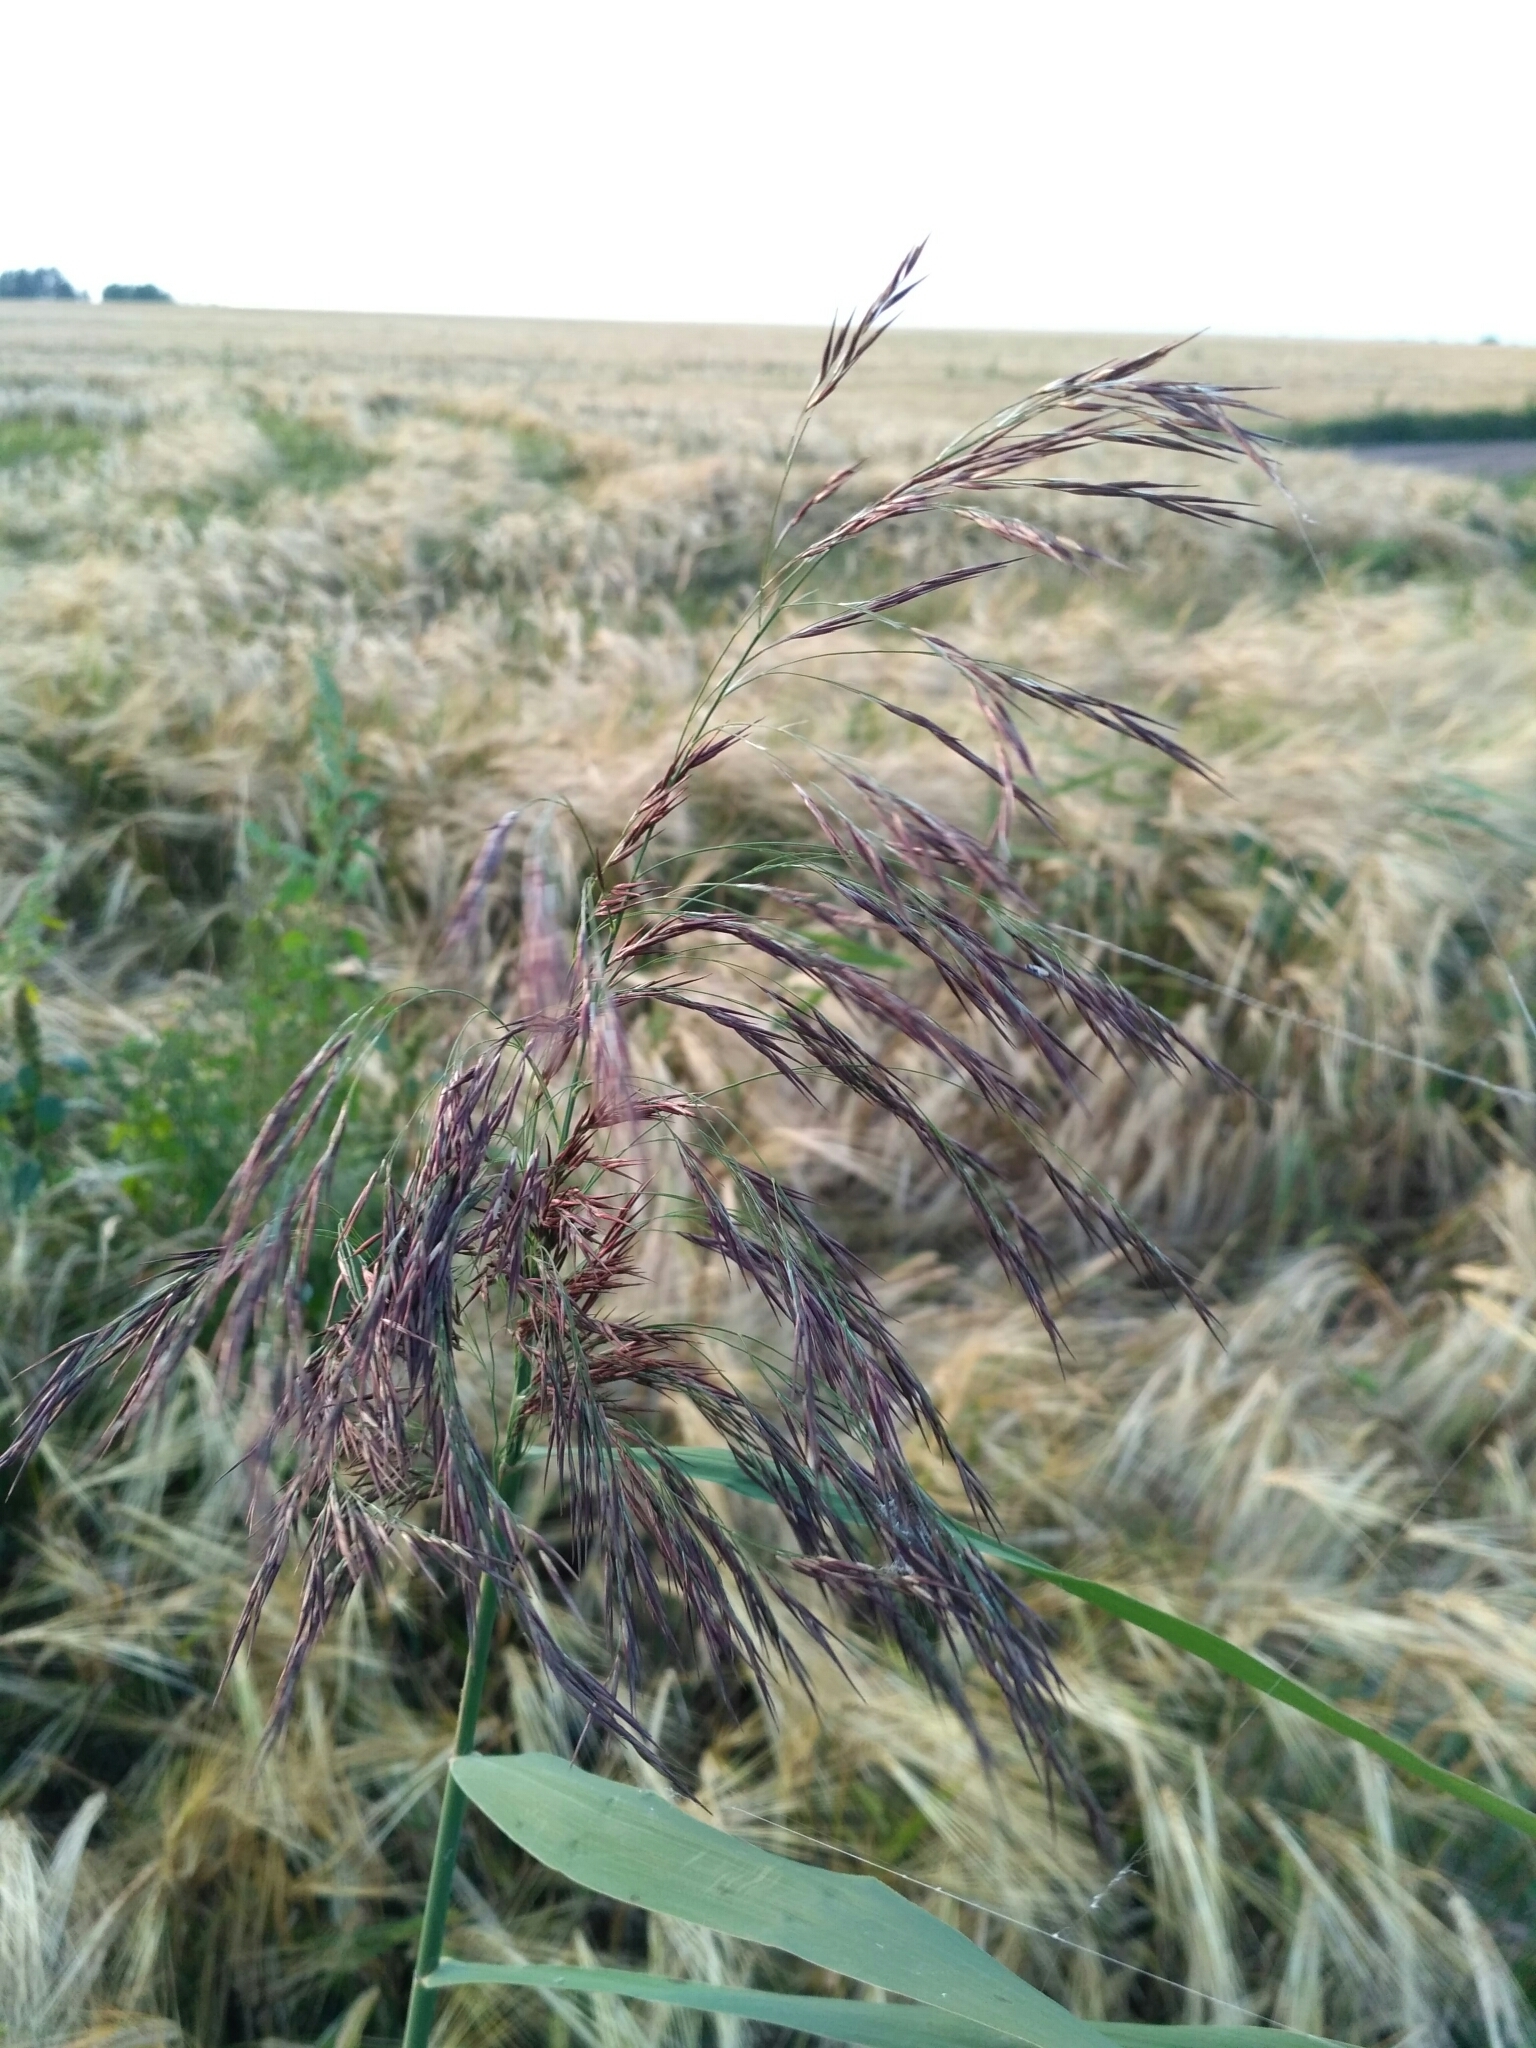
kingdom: Plantae
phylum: Tracheophyta
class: Liliopsida
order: Poales
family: Poaceae
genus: Phragmites
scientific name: Phragmites australis
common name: Common reed
